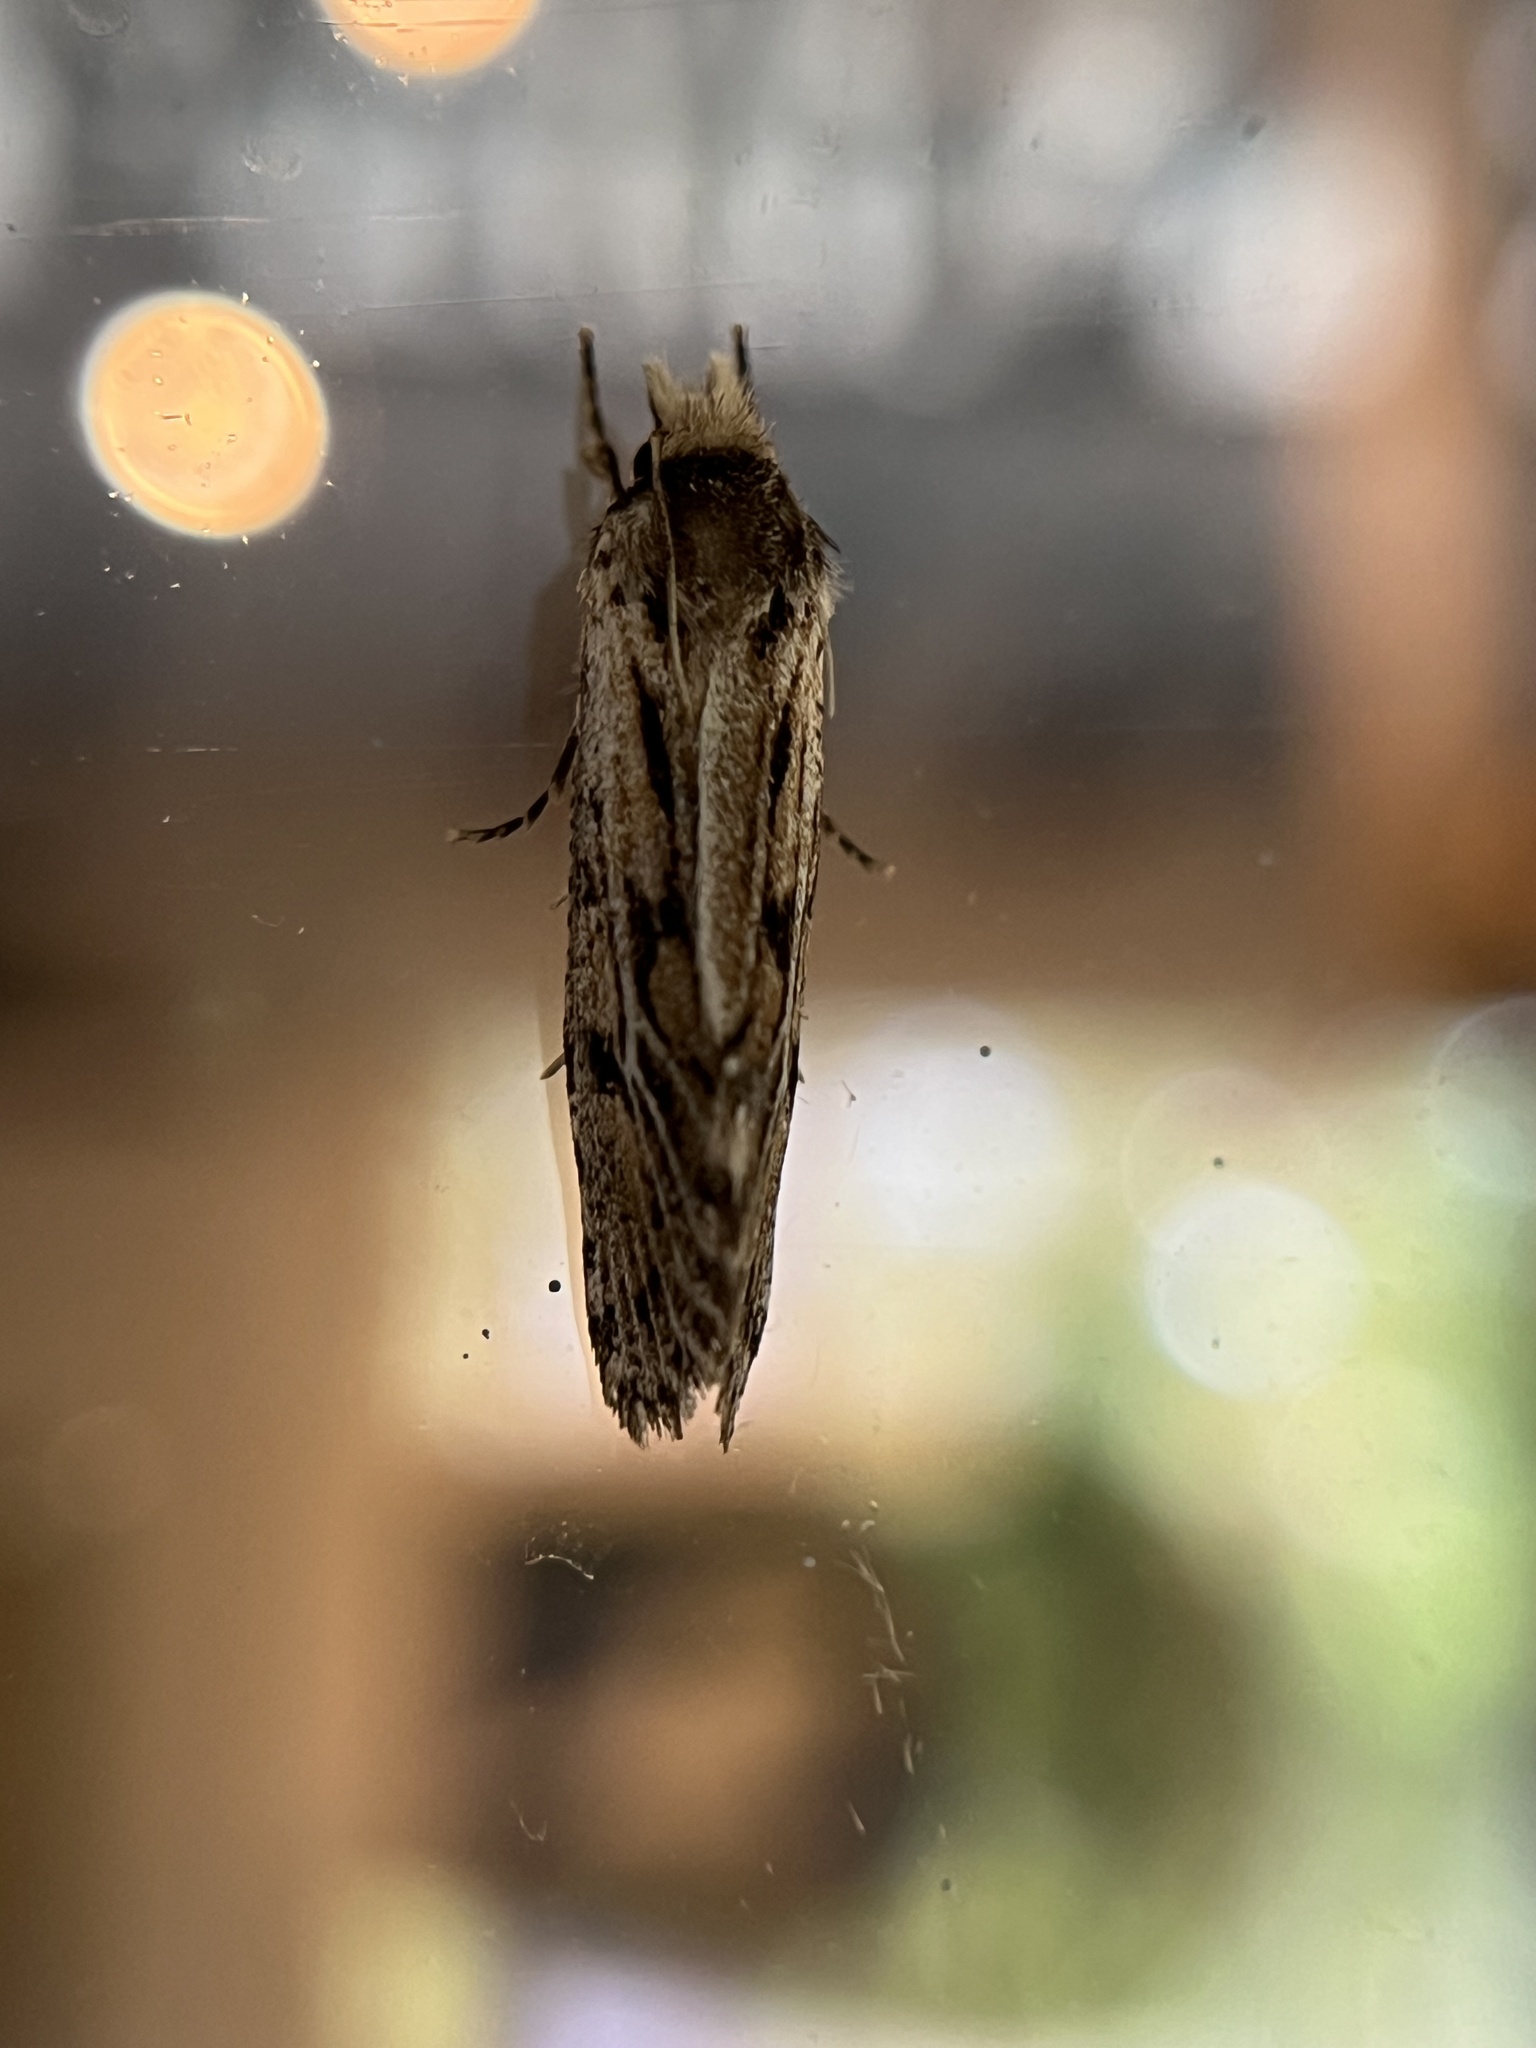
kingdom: Animalia
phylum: Arthropoda
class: Insecta
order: Lepidoptera
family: Tineidae
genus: Acrolophus
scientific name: Acrolophus popeanella
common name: Clemens' grass tubeworm moth
